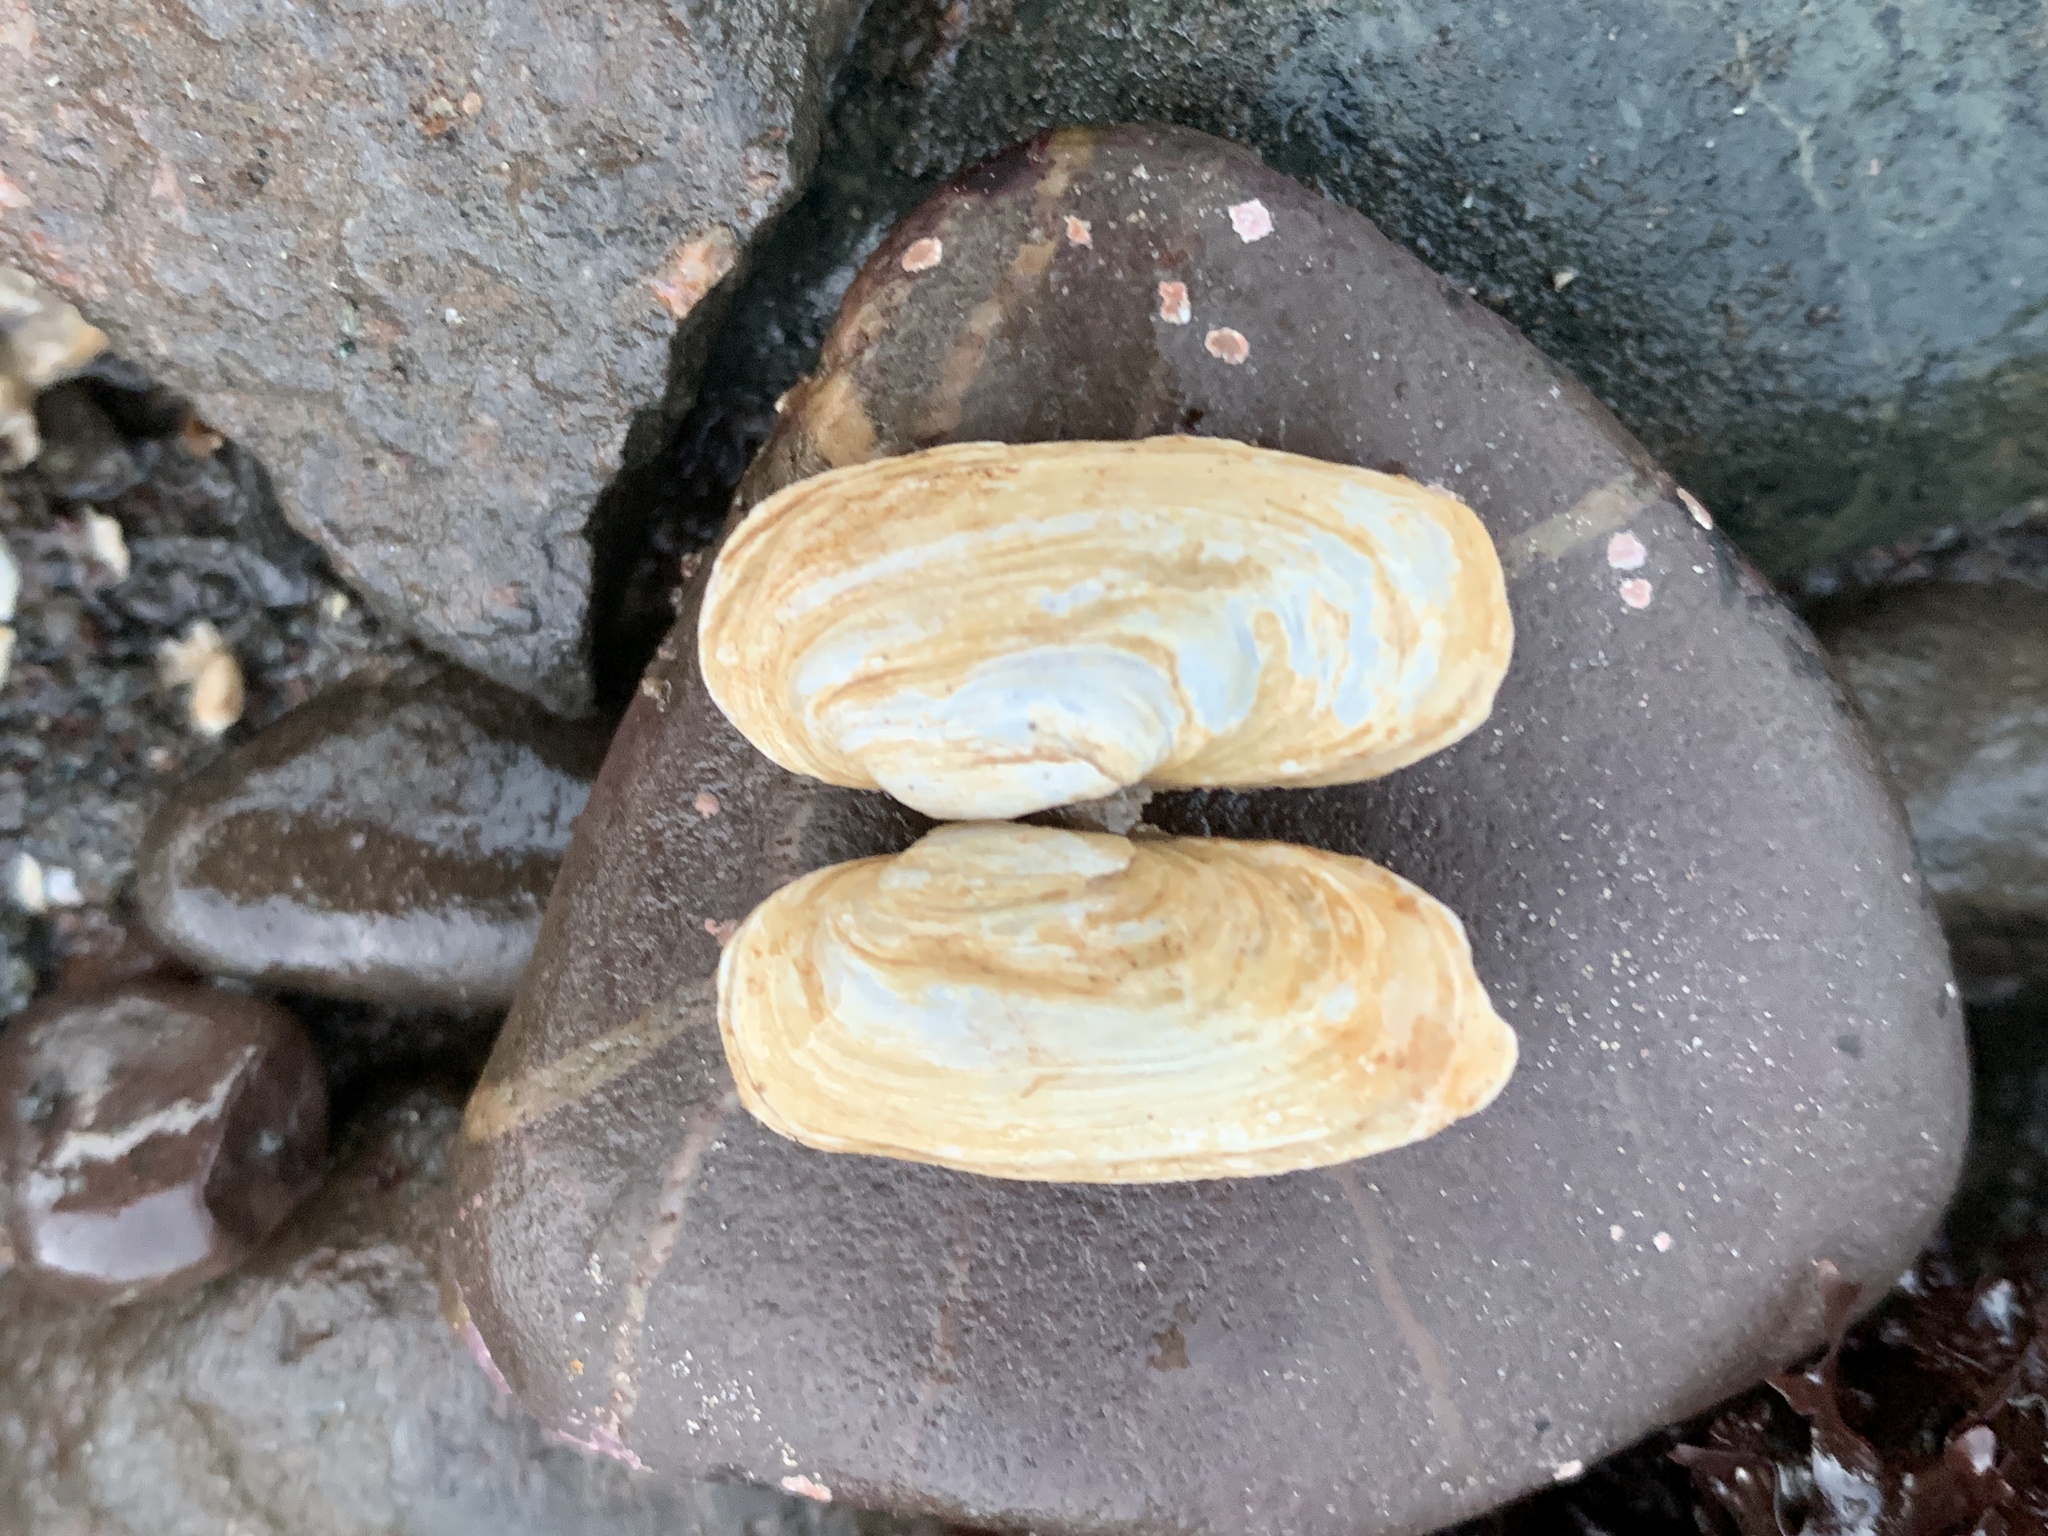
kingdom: Animalia
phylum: Mollusca
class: Bivalvia
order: Adapedonta
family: Hiatellidae
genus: Hiatella
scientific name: Hiatella arctica
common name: Arctic hiatella
